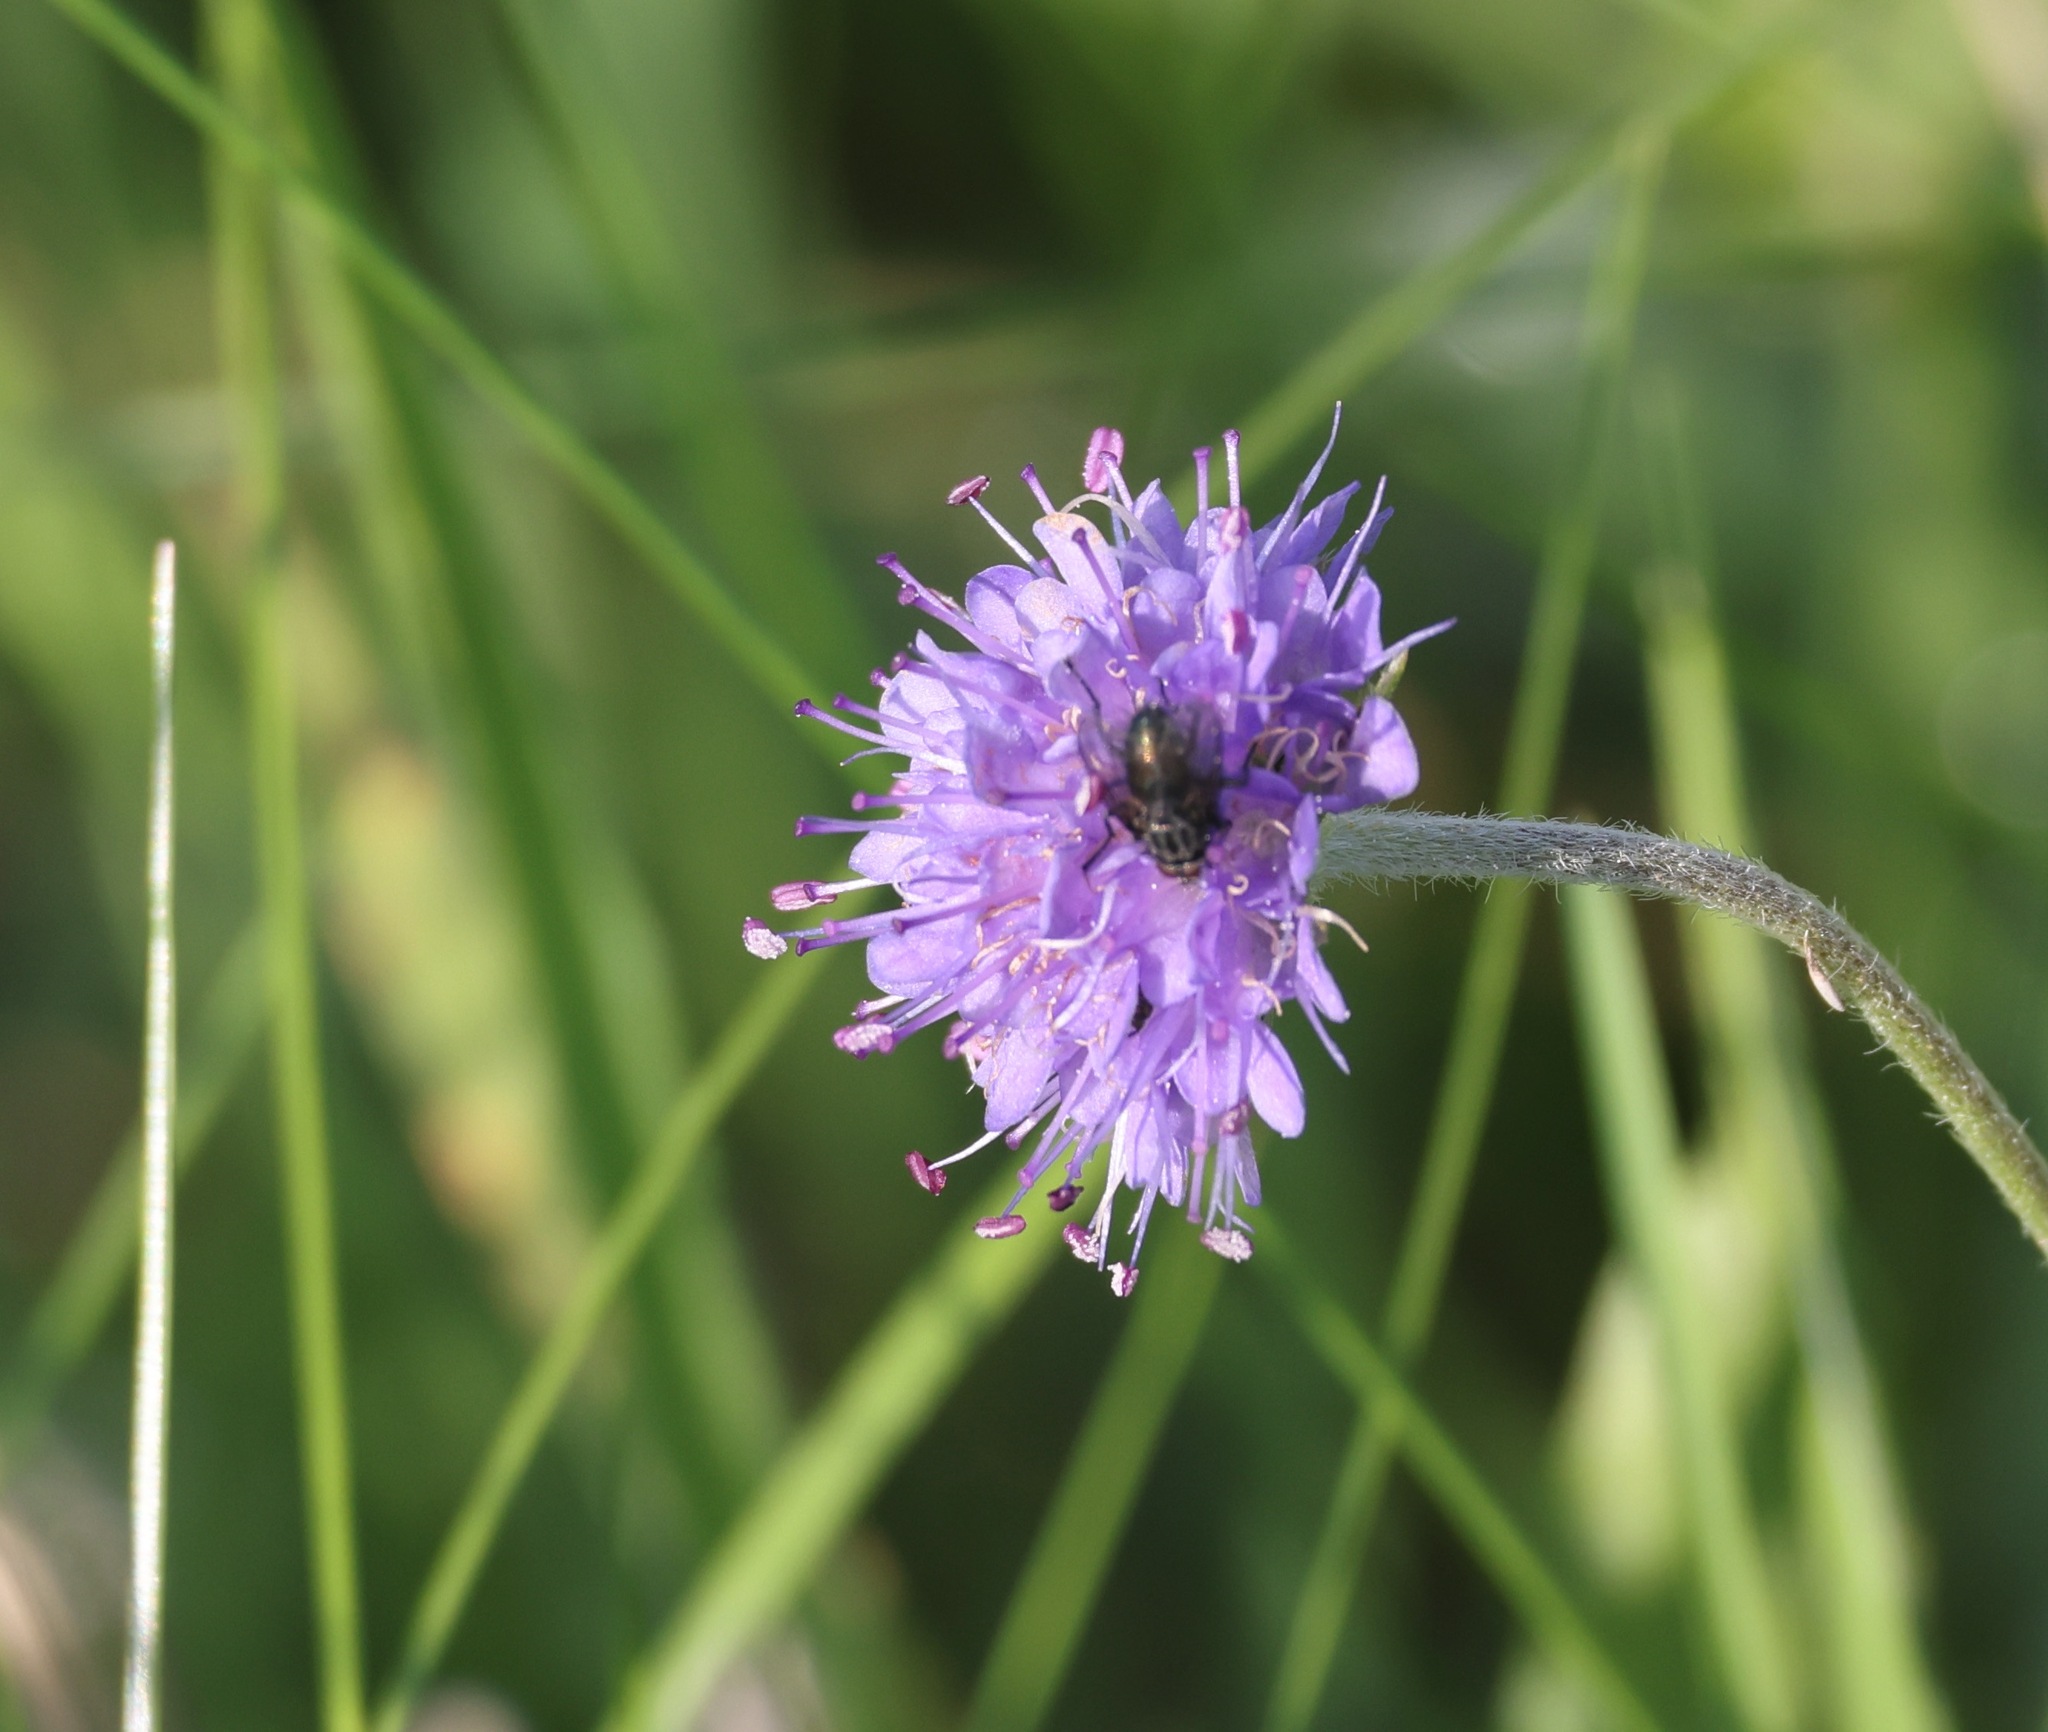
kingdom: Plantae
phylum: Tracheophyta
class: Magnoliopsida
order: Dipsacales
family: Caprifoliaceae
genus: Succisa
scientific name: Succisa pratensis
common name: Devil's-bit
